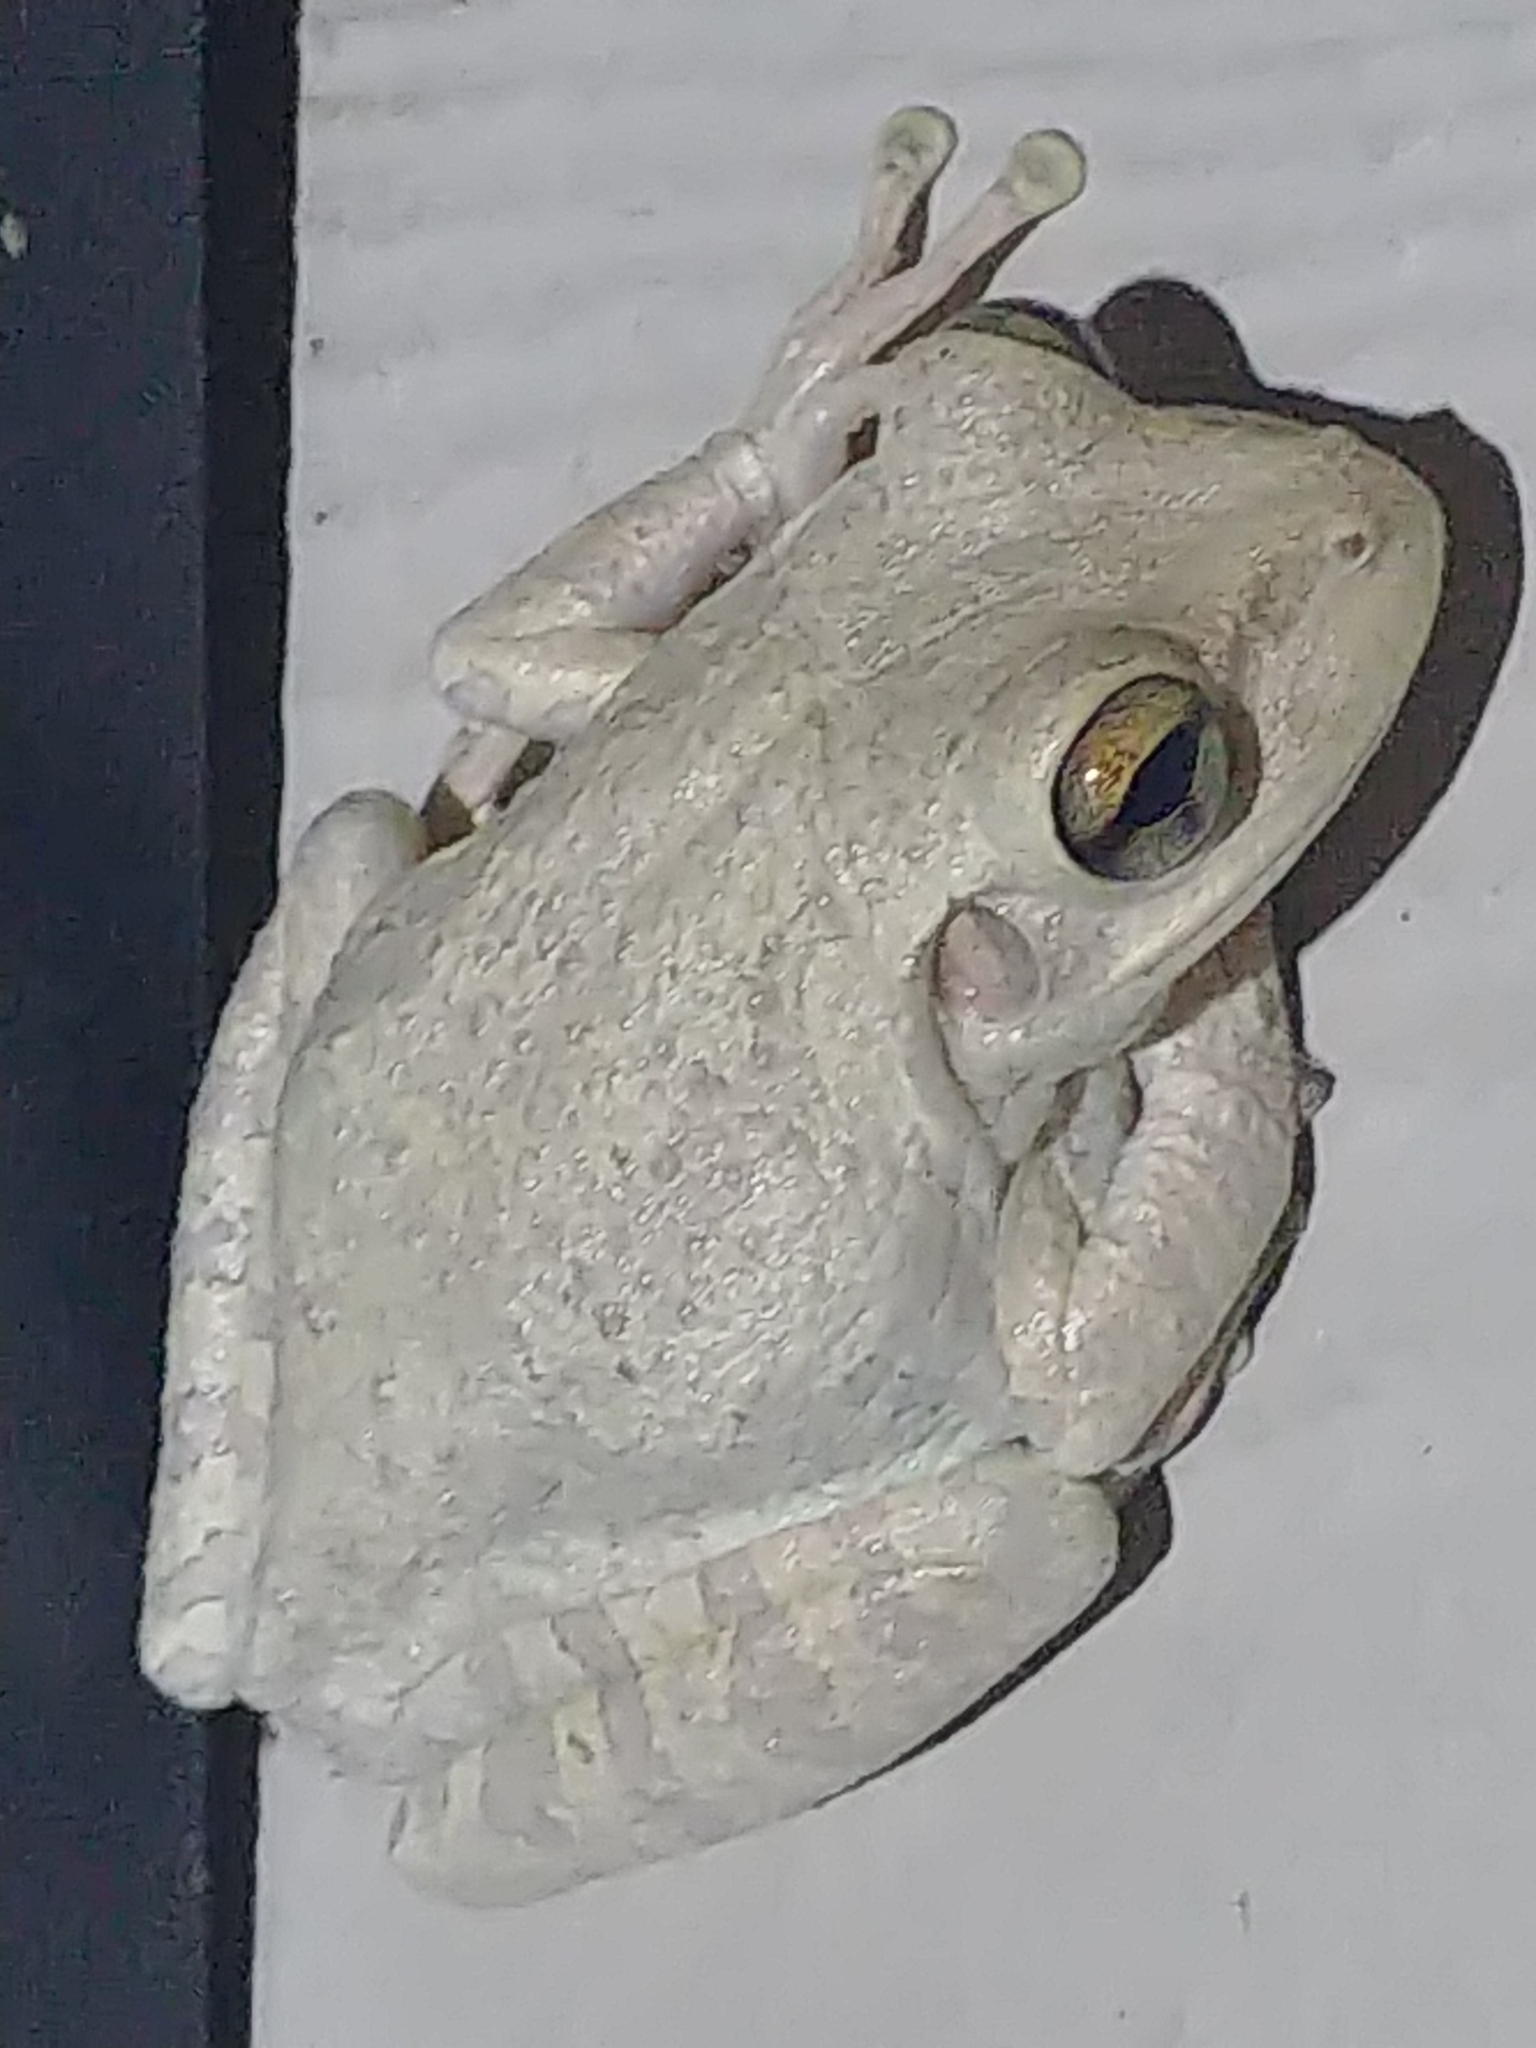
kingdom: Animalia
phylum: Chordata
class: Amphibia
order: Anura
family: Hylidae
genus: Osteopilus
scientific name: Osteopilus septentrionalis
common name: Cuban treefrog
